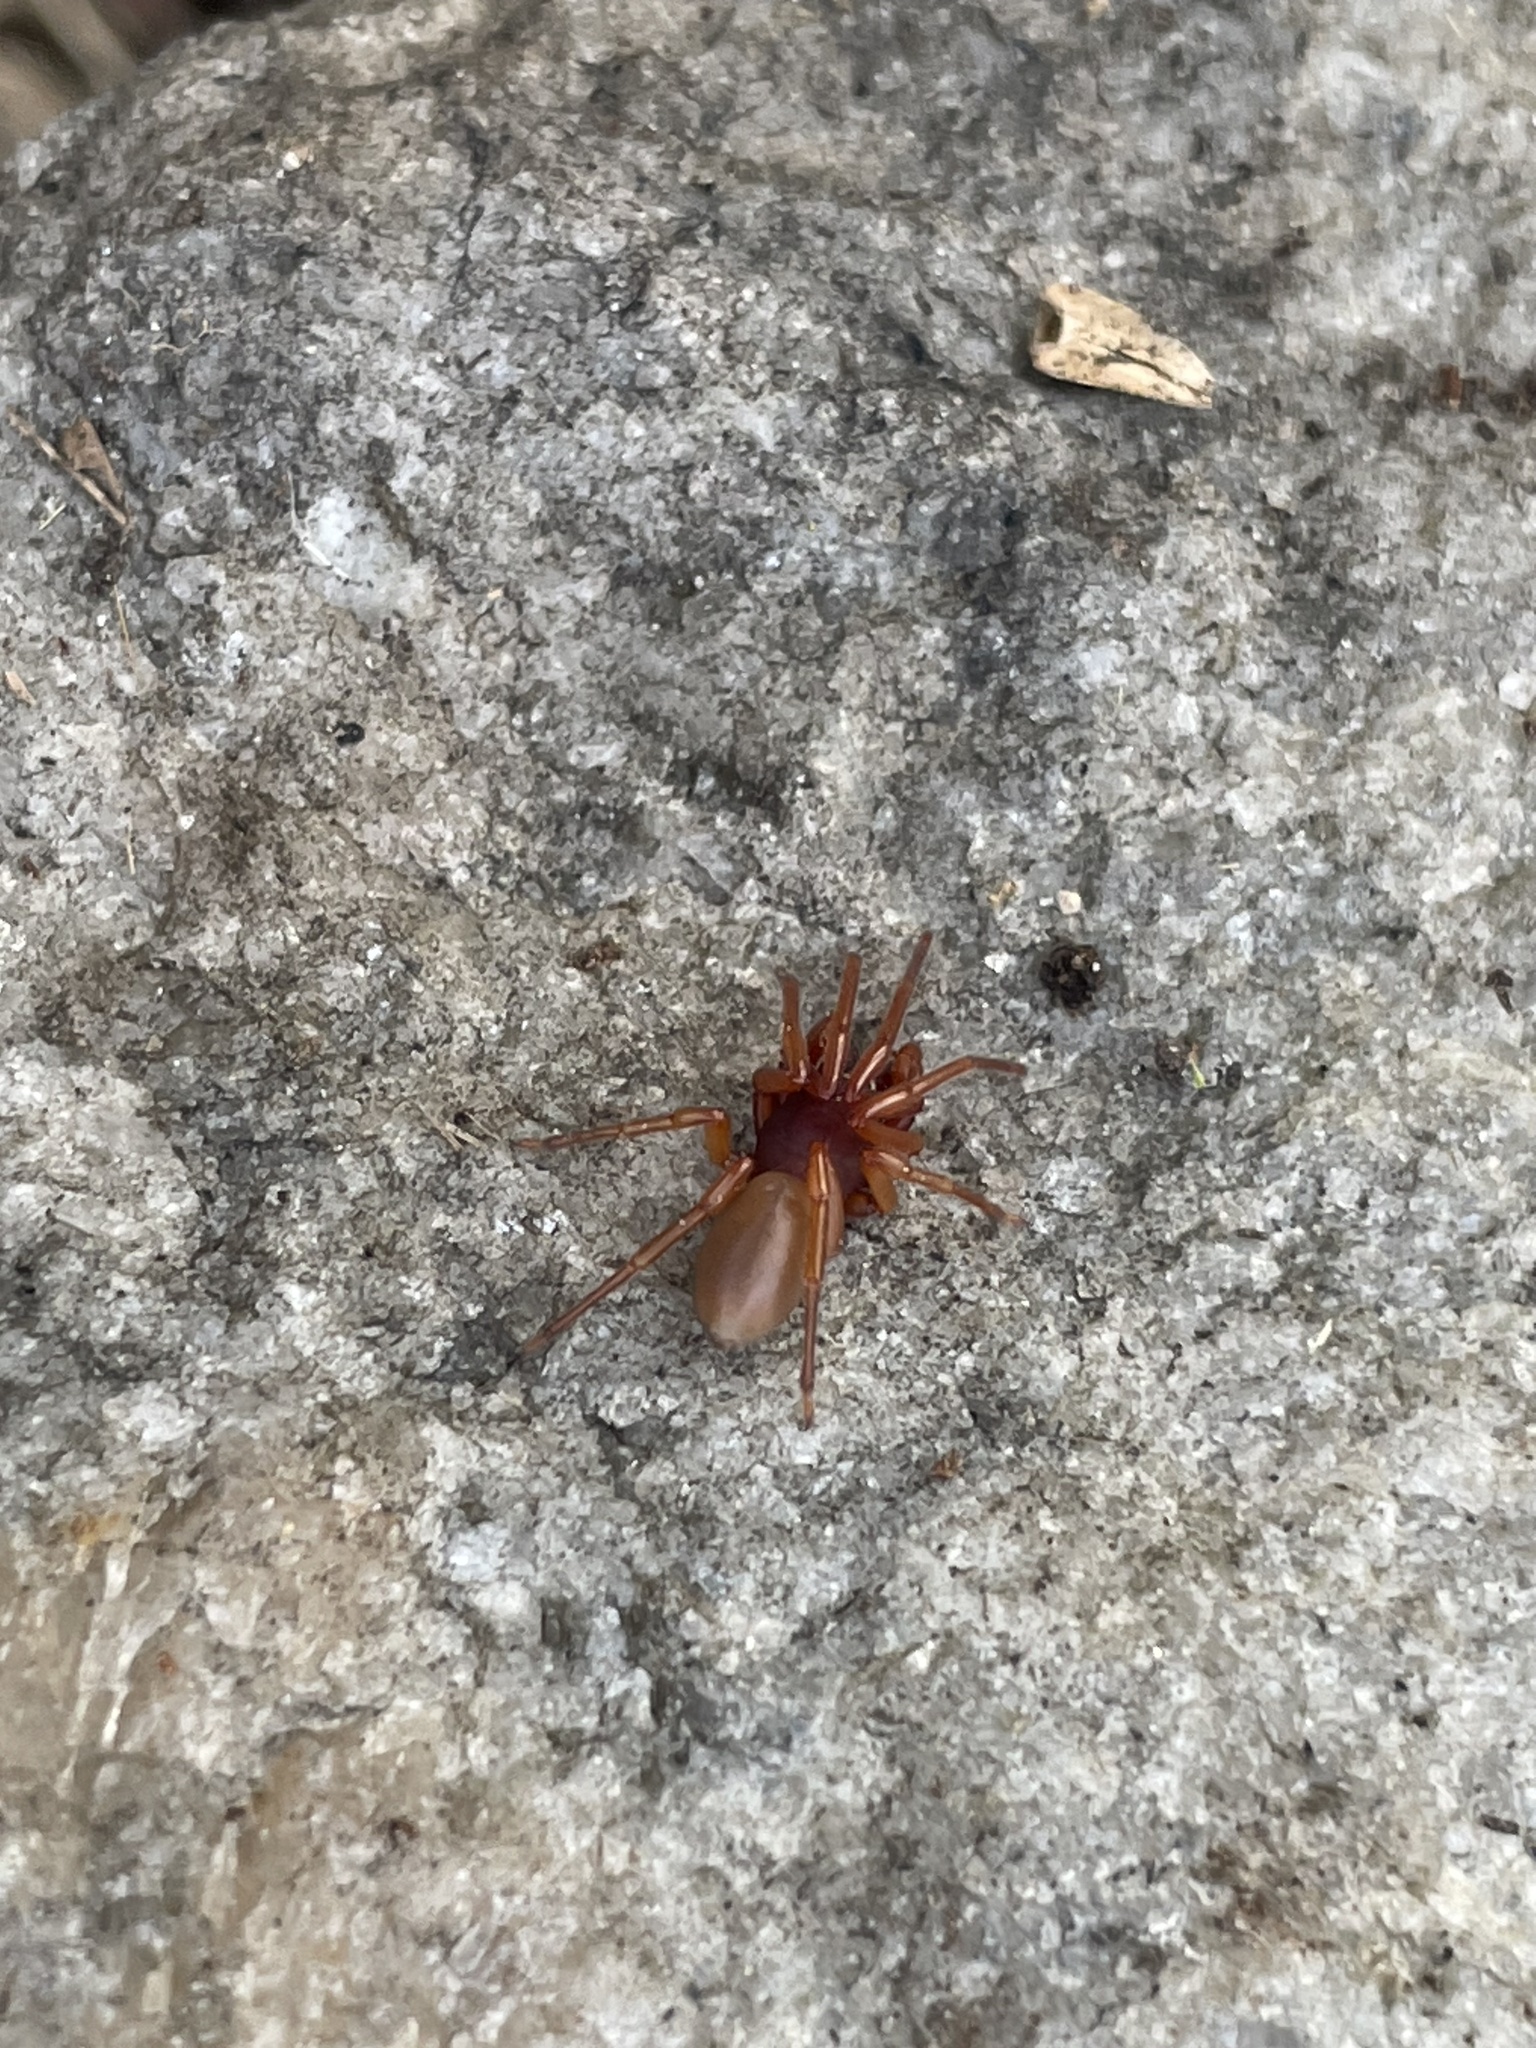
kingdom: Animalia
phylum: Arthropoda
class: Arachnida
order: Araneae
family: Dysderidae
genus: Dysdera
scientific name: Dysdera crocata
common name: Woodlouse spider
